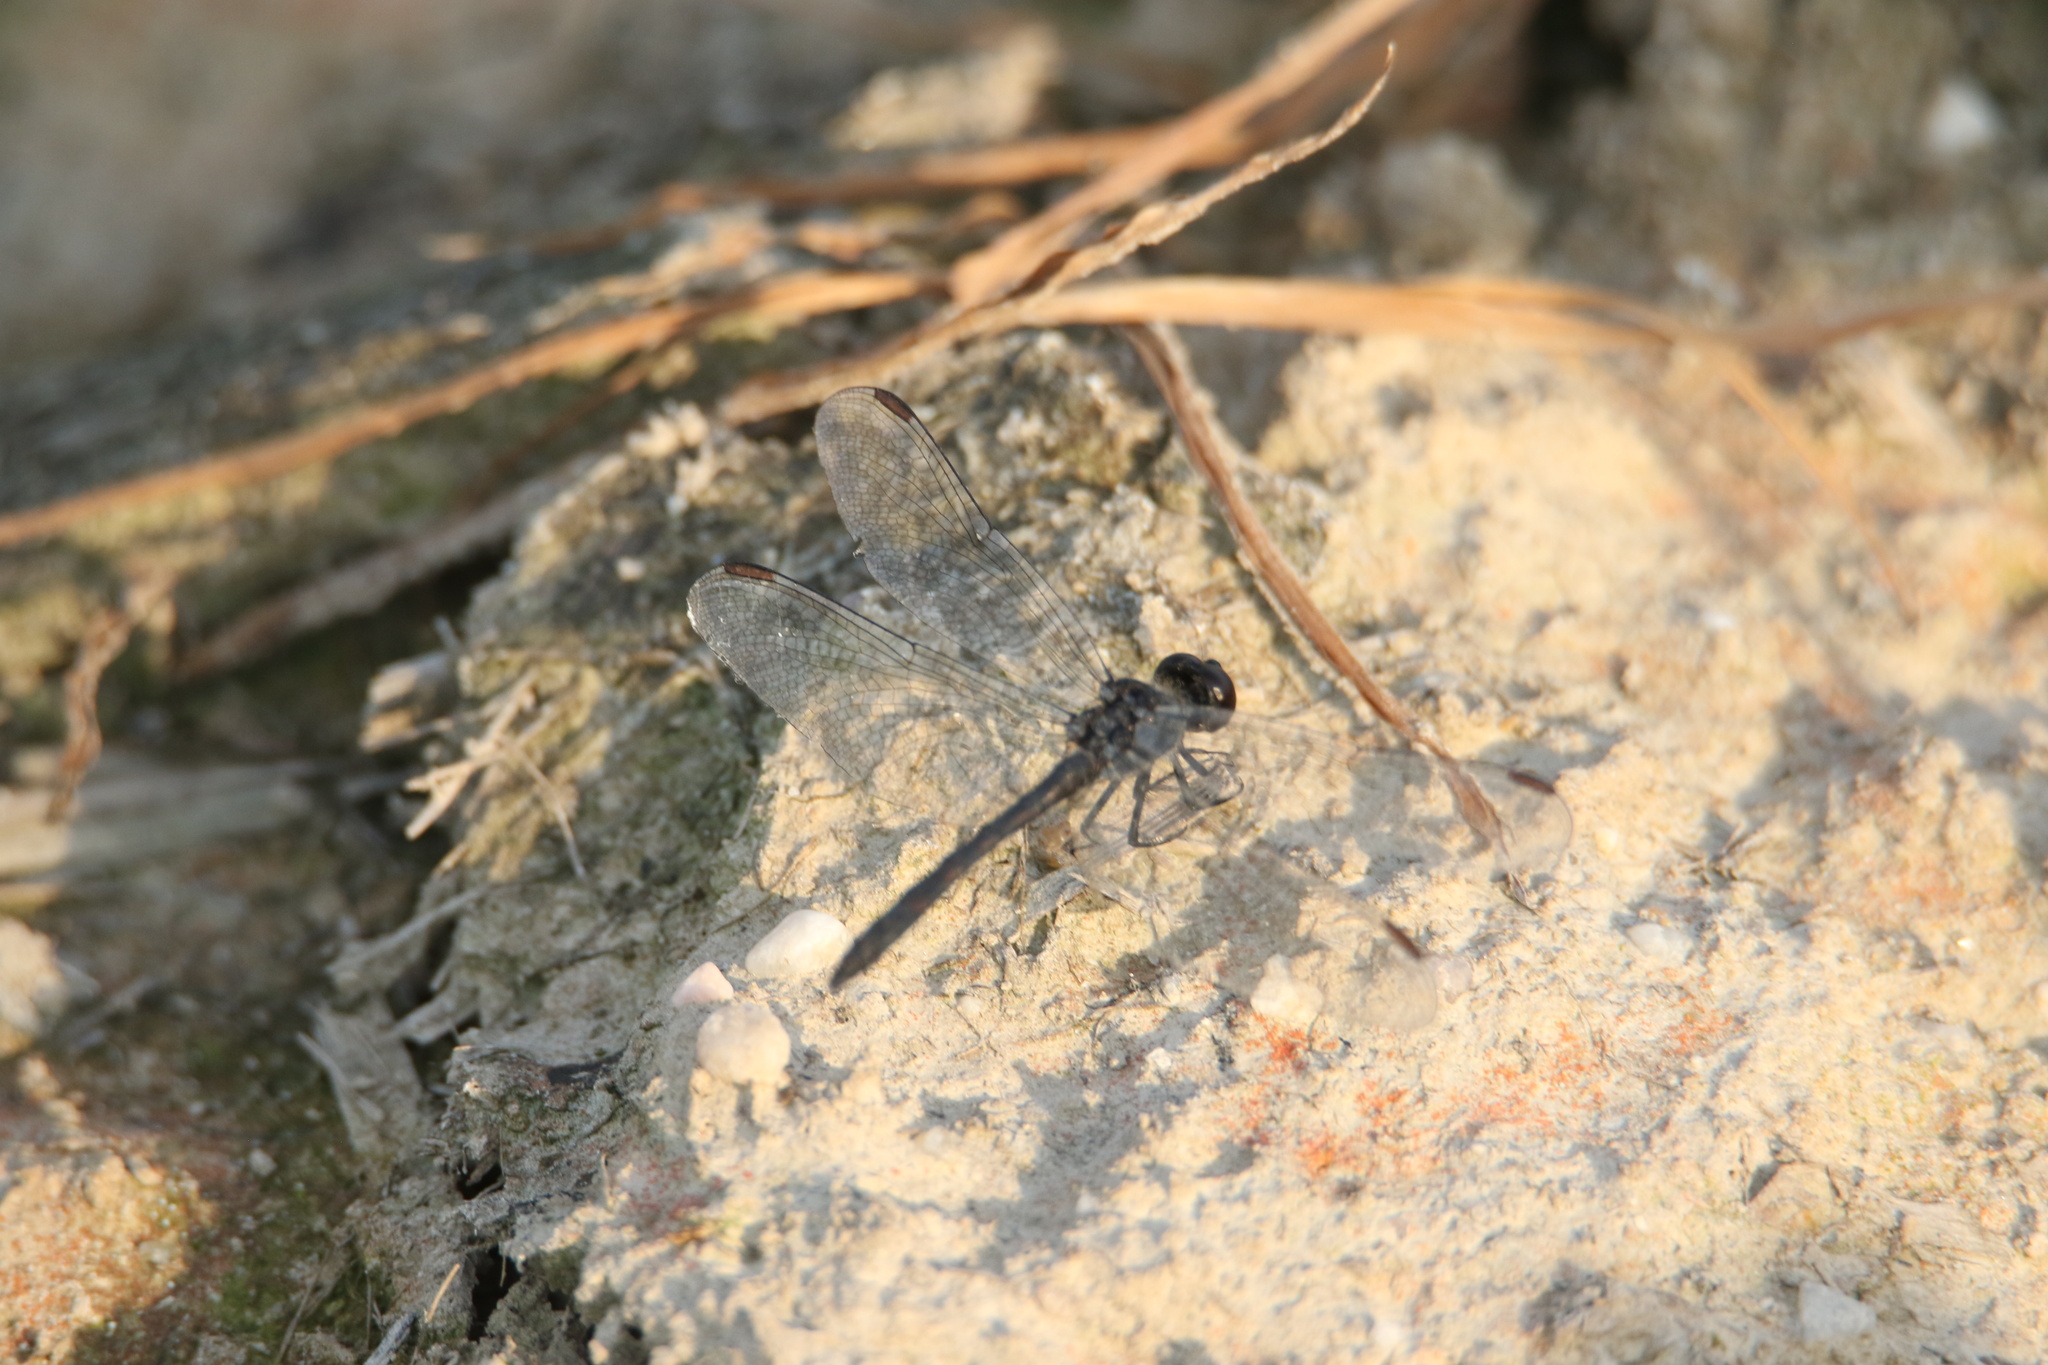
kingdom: Animalia
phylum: Arthropoda
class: Insecta
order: Odonata
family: Libellulidae
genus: Erythrodiplax
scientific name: Erythrodiplax berenice
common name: Seaside dragonlet
